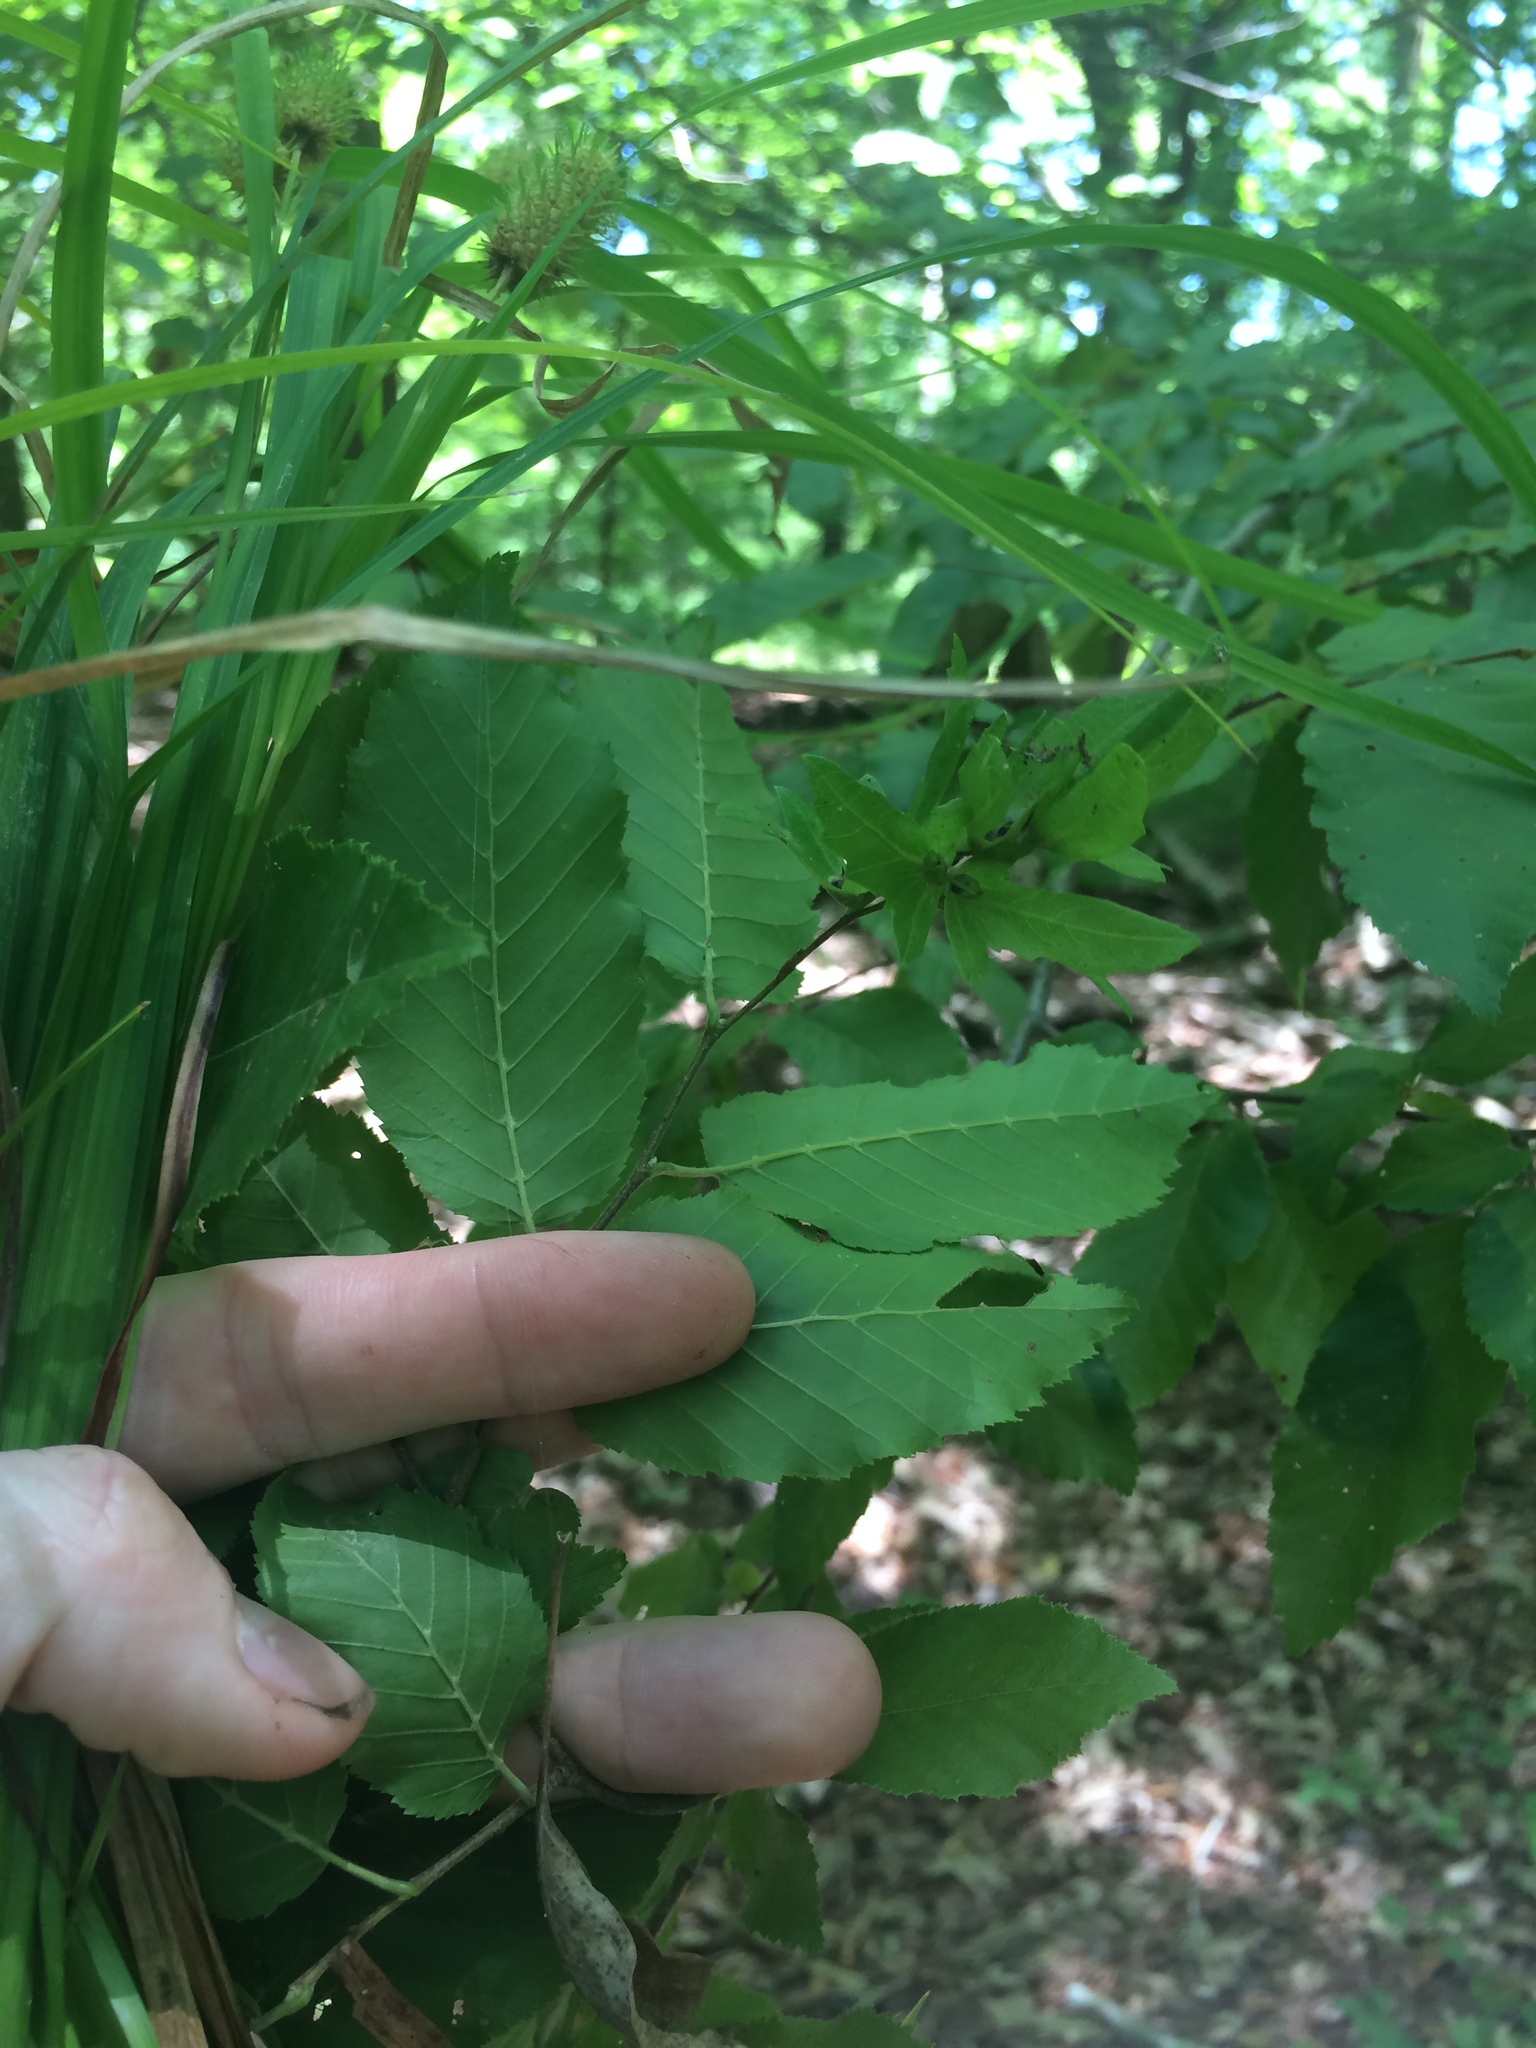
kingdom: Plantae
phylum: Tracheophyta
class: Magnoliopsida
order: Fagales
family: Betulaceae
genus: Carpinus
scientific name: Carpinus caroliniana
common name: American hornbeam
